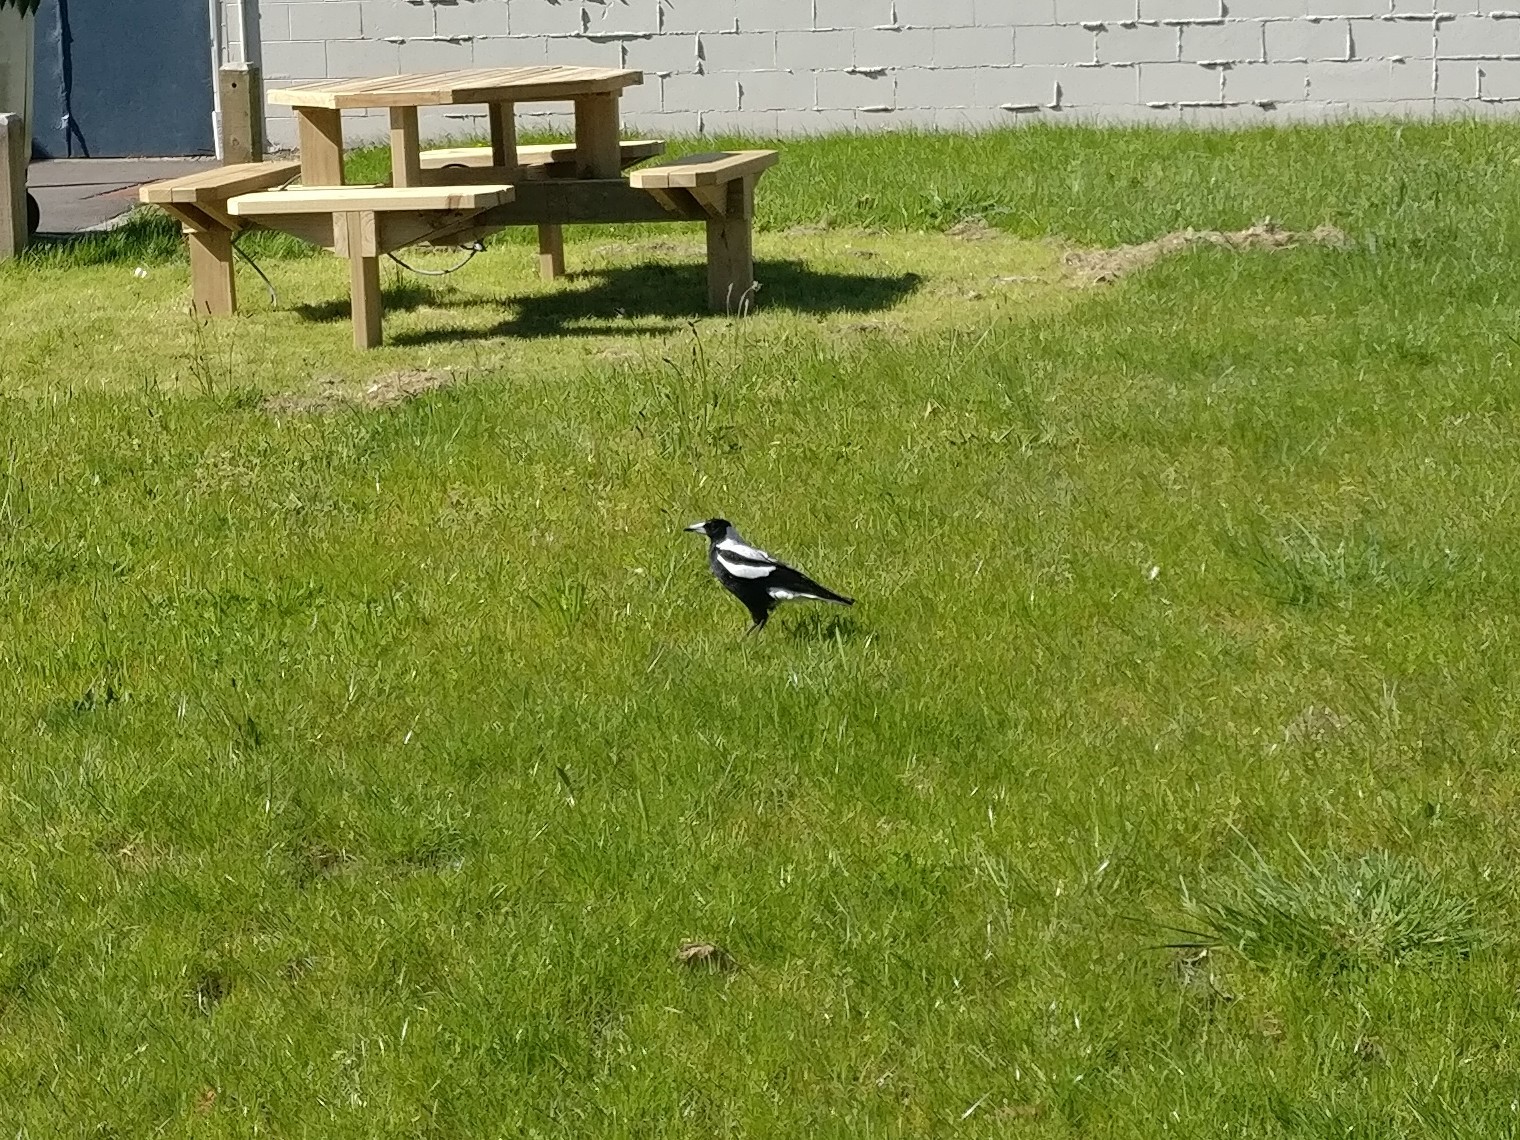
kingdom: Animalia
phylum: Chordata
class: Aves
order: Passeriformes
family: Cracticidae
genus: Gymnorhina
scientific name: Gymnorhina tibicen
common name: Australian magpie
